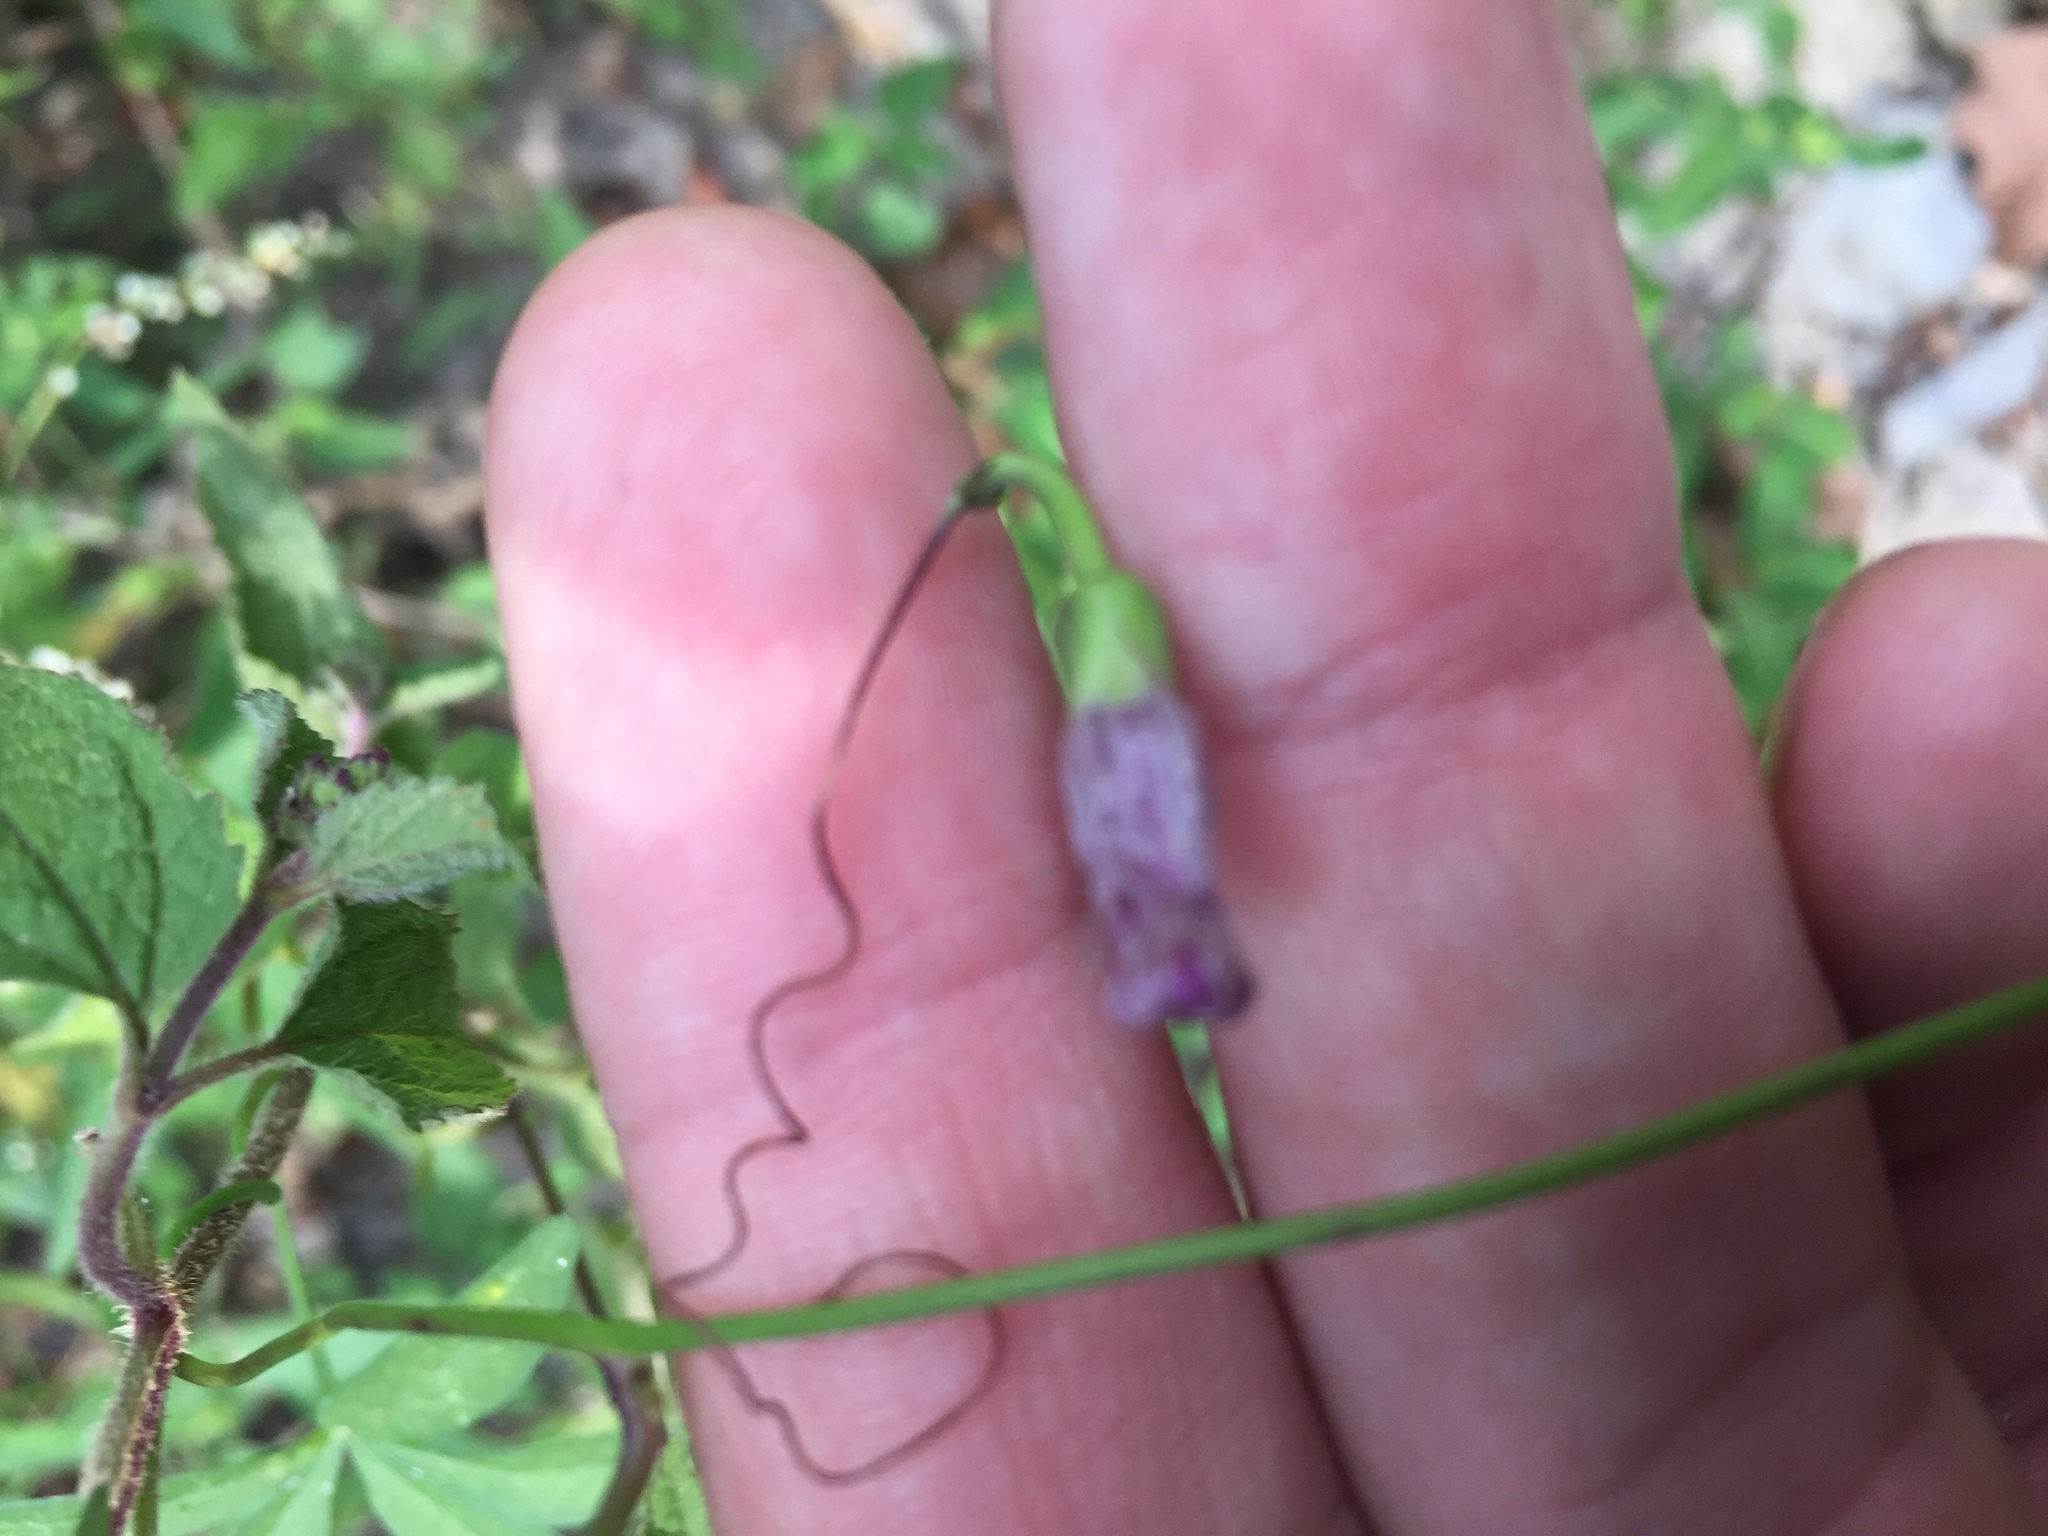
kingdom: Plantae
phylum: Tracheophyta
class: Magnoliopsida
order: Solanales
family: Convolvulaceae
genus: Ipomoea
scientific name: Ipomoea heptaphylla
